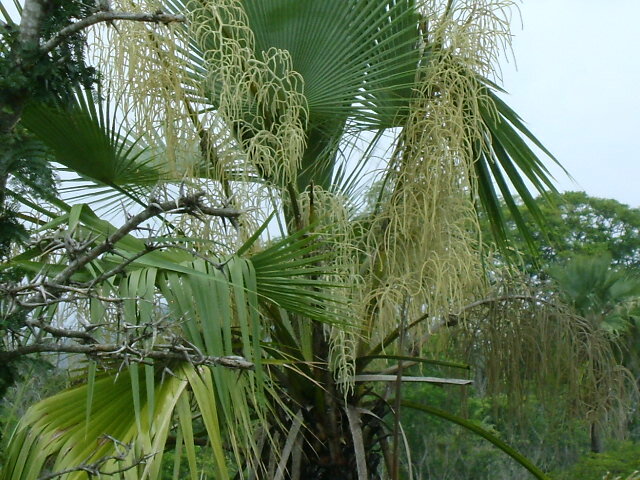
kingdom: Plantae
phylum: Tracheophyta
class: Liliopsida
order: Arecales
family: Arecaceae
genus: Brahea
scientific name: Brahea dulcis
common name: Apak palm
